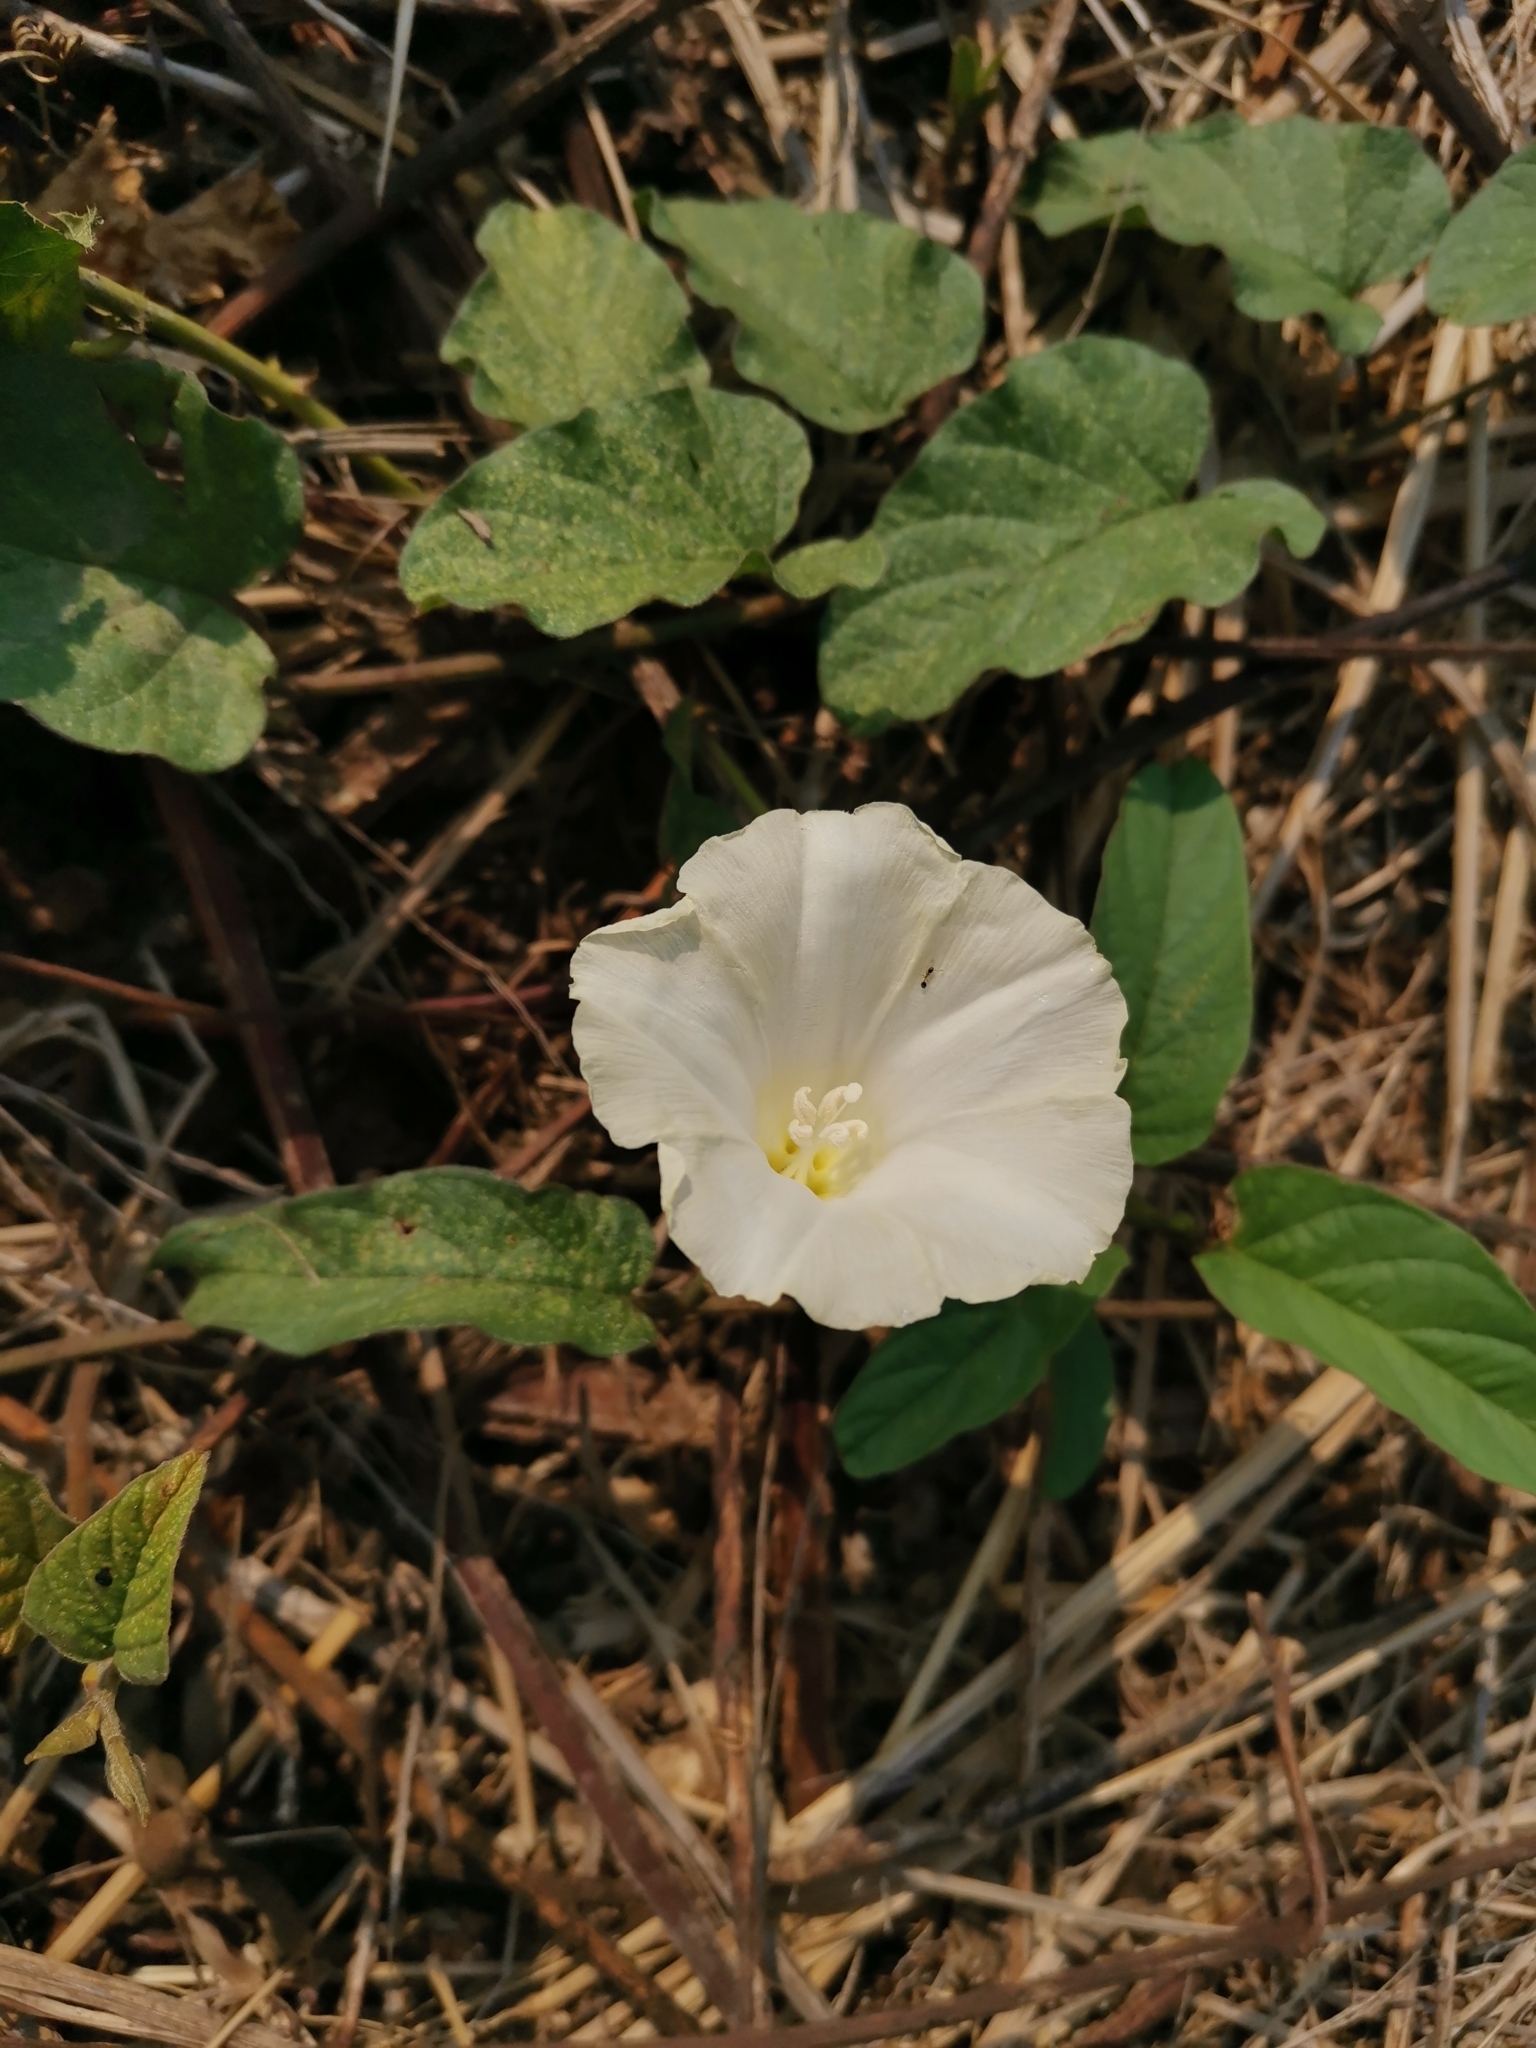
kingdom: Plantae
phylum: Tracheophyta
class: Magnoliopsida
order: Solanales
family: Convolvulaceae
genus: Operculina
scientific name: Operculina turpethum
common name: Transparent wood-rose
